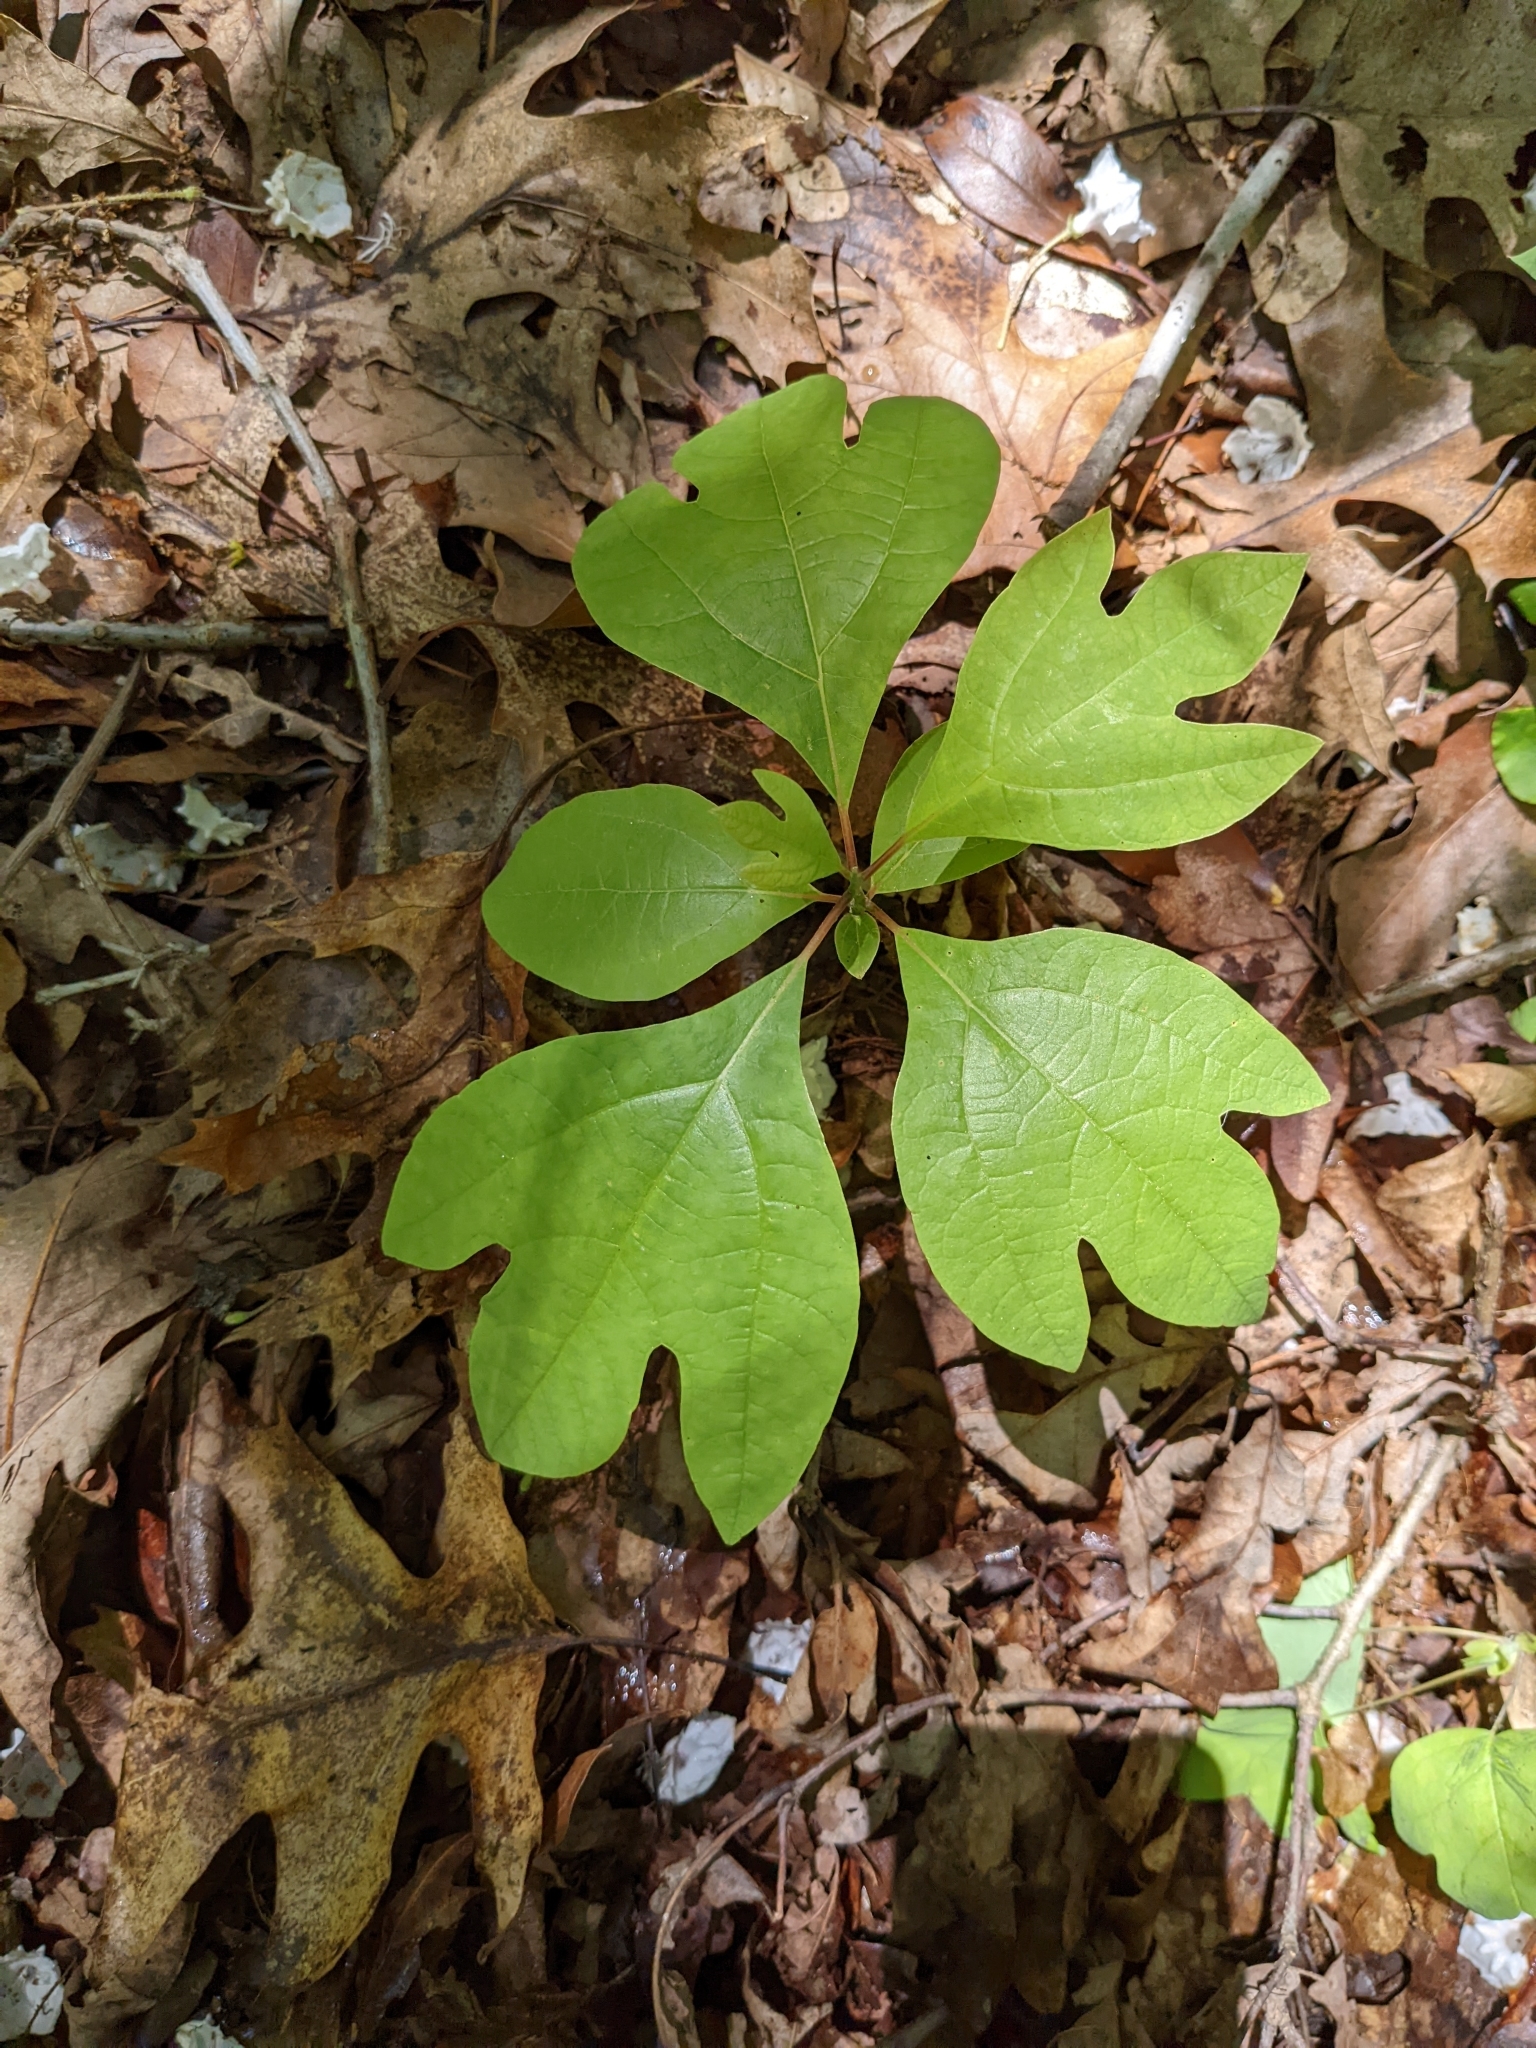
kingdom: Plantae
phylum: Tracheophyta
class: Magnoliopsida
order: Laurales
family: Lauraceae
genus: Sassafras
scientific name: Sassafras albidum
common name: Sassafras
